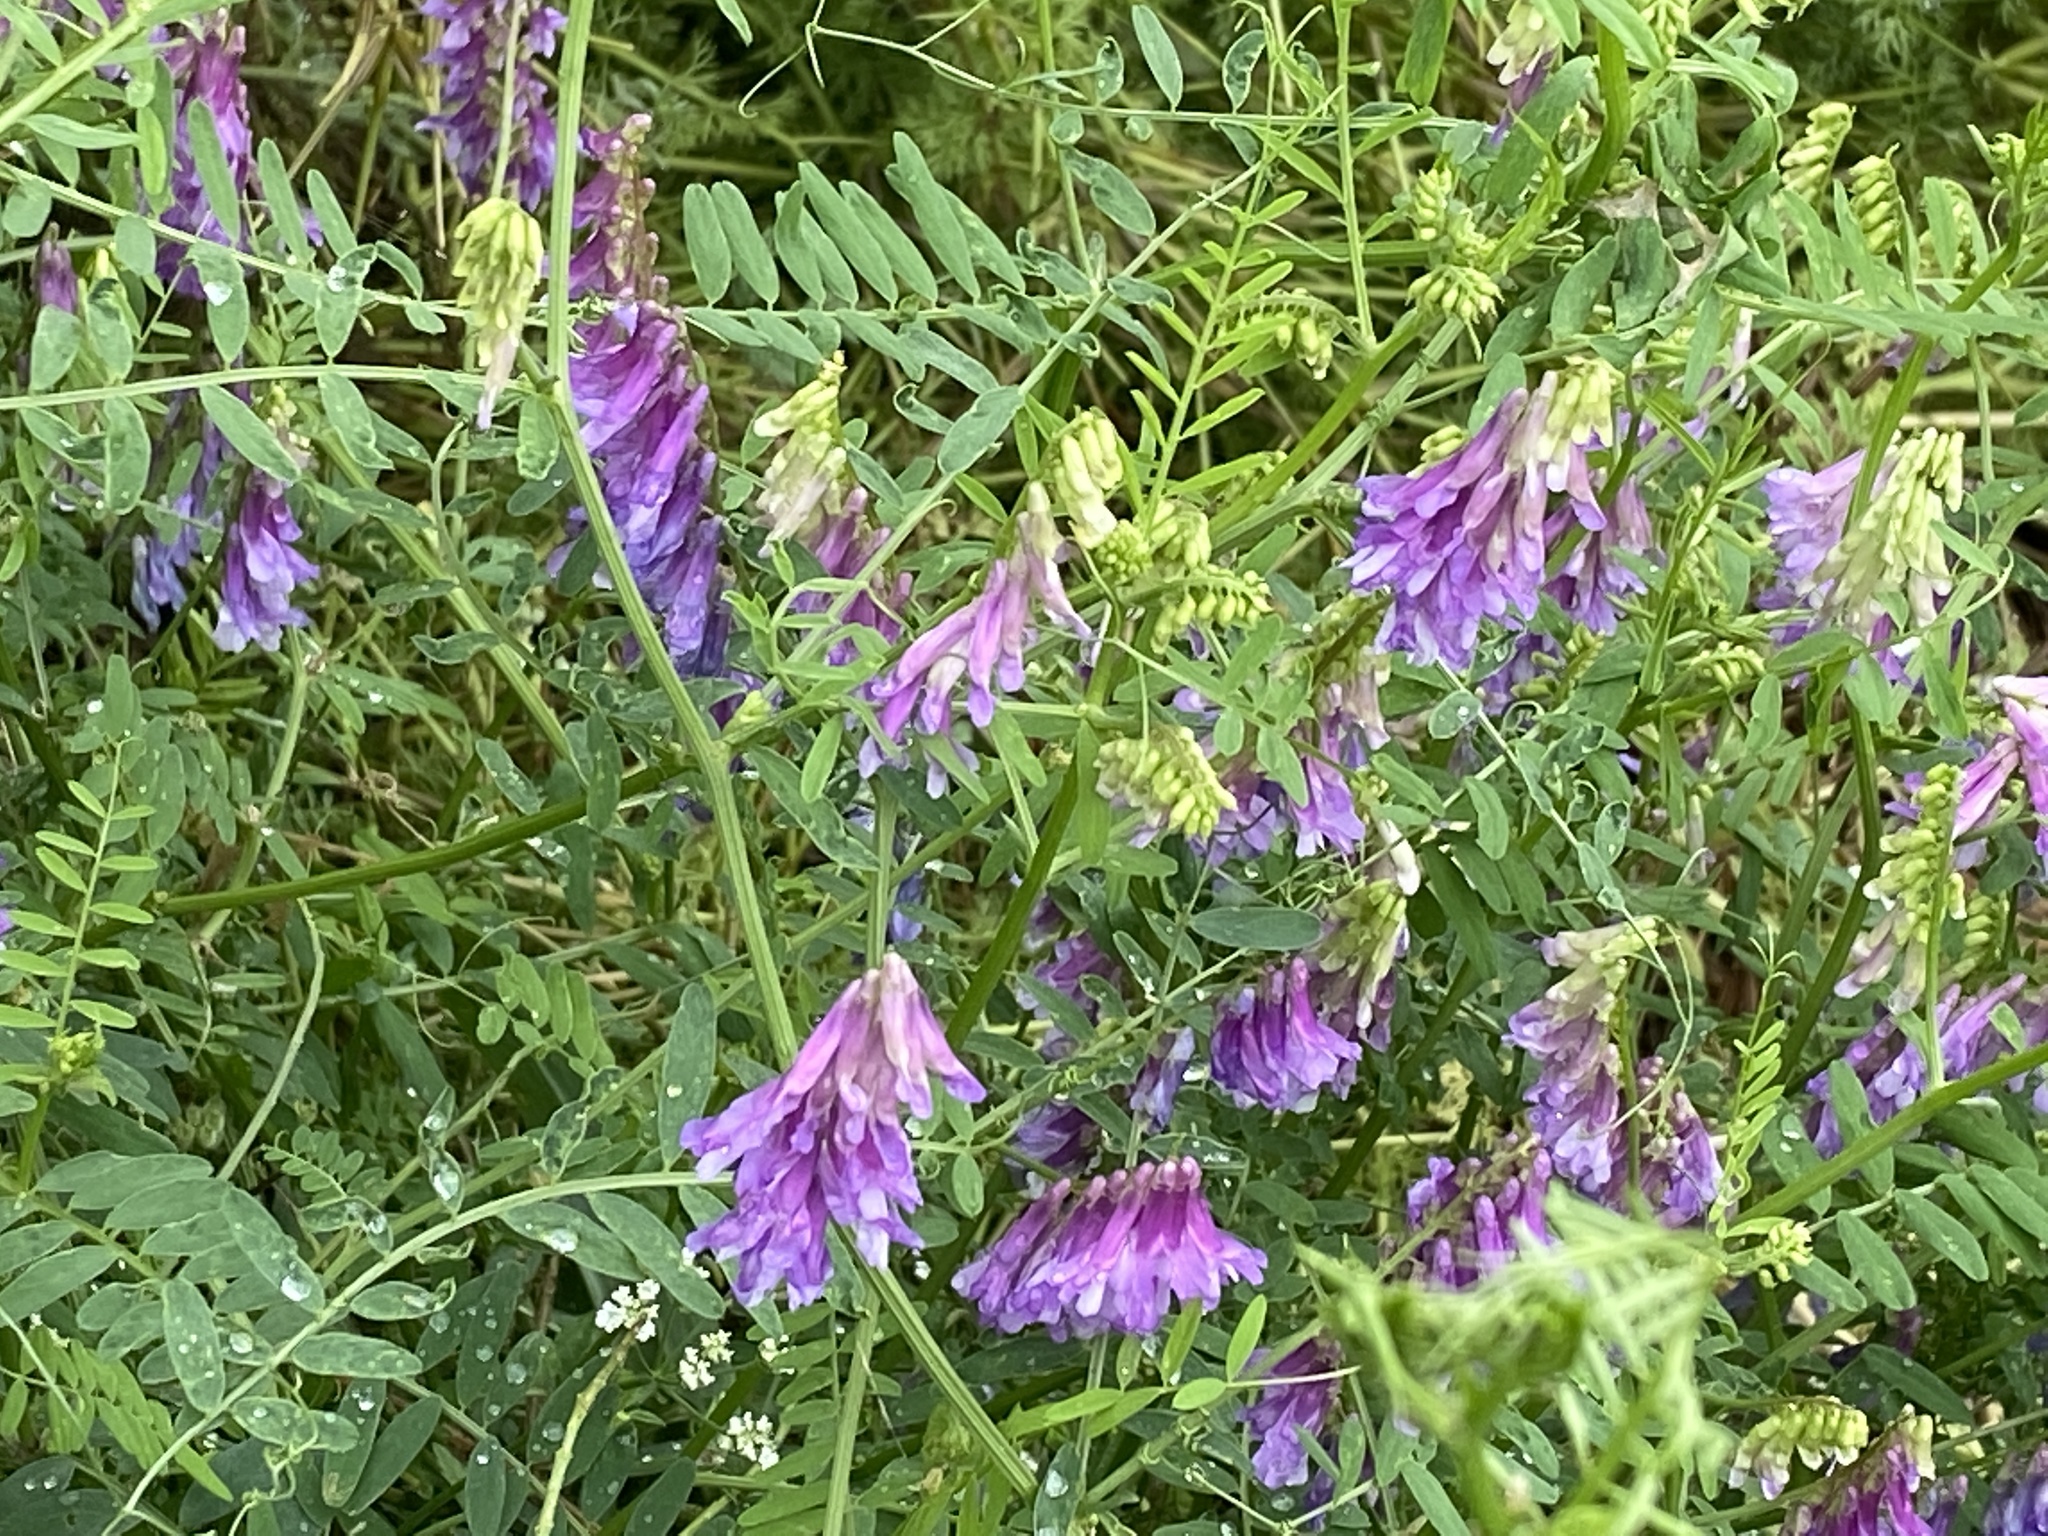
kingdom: Plantae
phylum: Tracheophyta
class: Magnoliopsida
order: Fabales
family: Fabaceae
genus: Vicia
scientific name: Vicia villosa
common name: Fodder vetch
